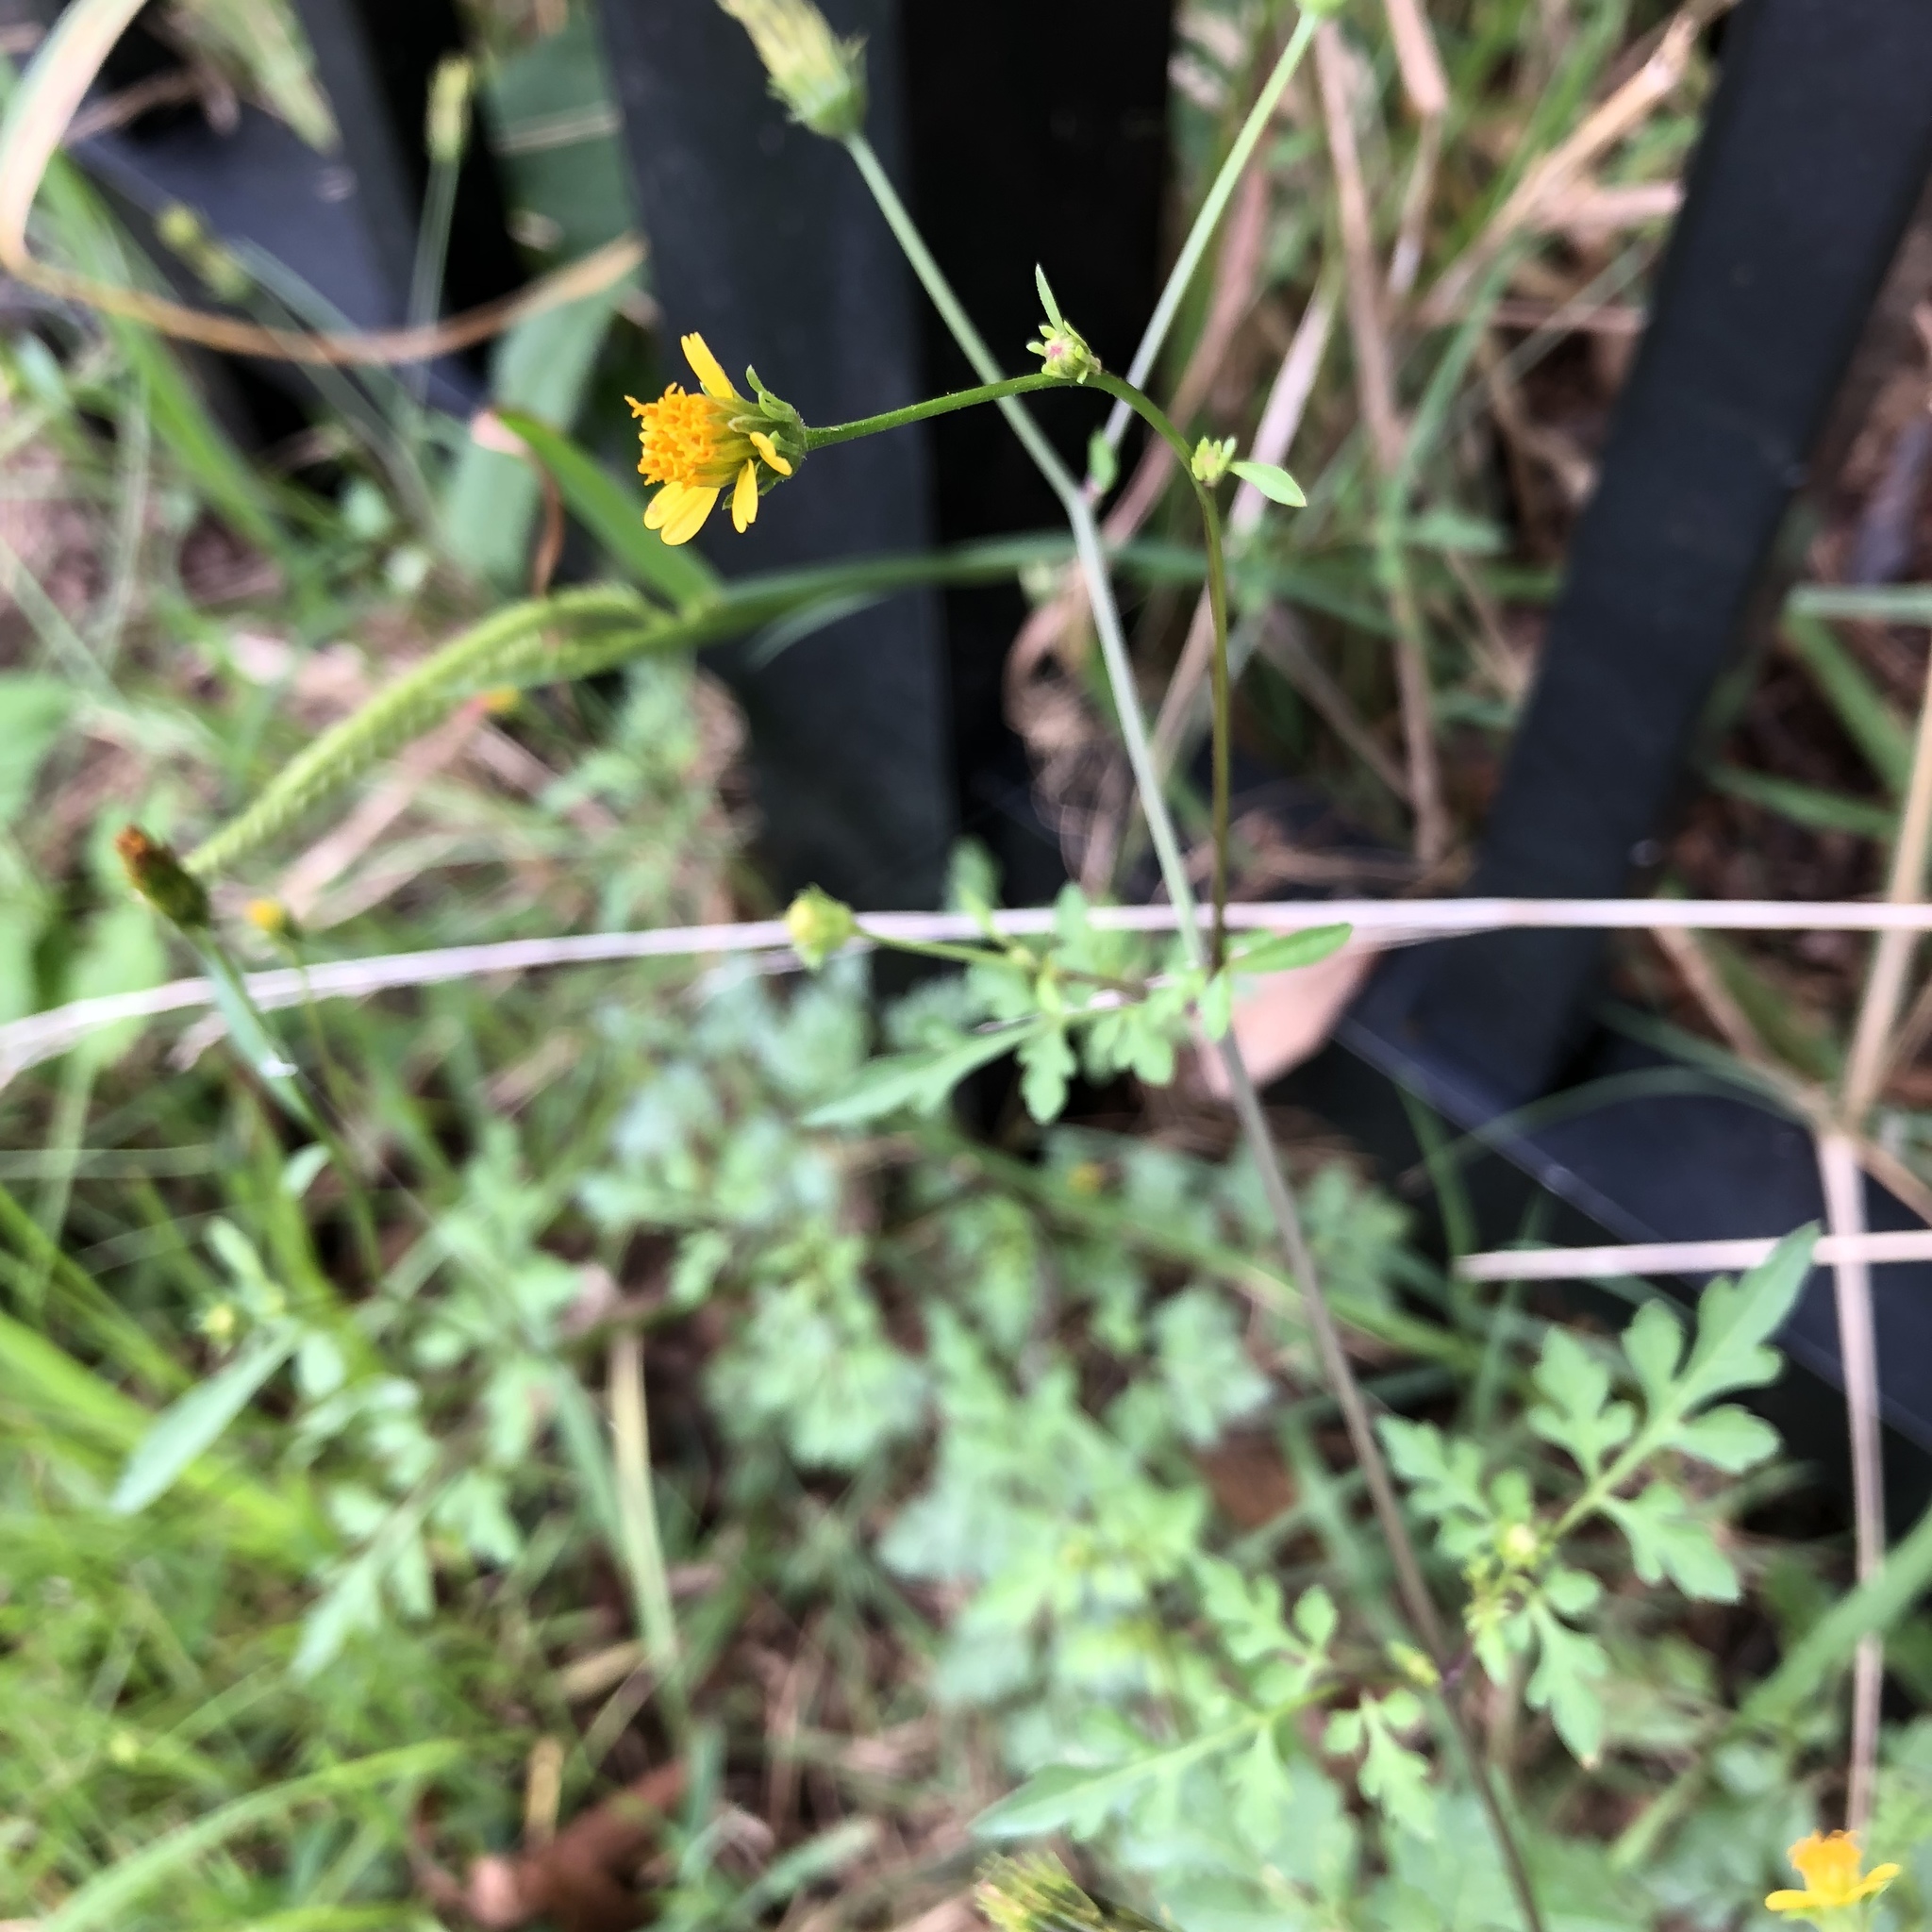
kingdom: Plantae
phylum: Tracheophyta
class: Magnoliopsida
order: Asterales
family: Asteraceae
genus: Bidens
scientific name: Bidens bipinnata
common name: Spanish-needles
